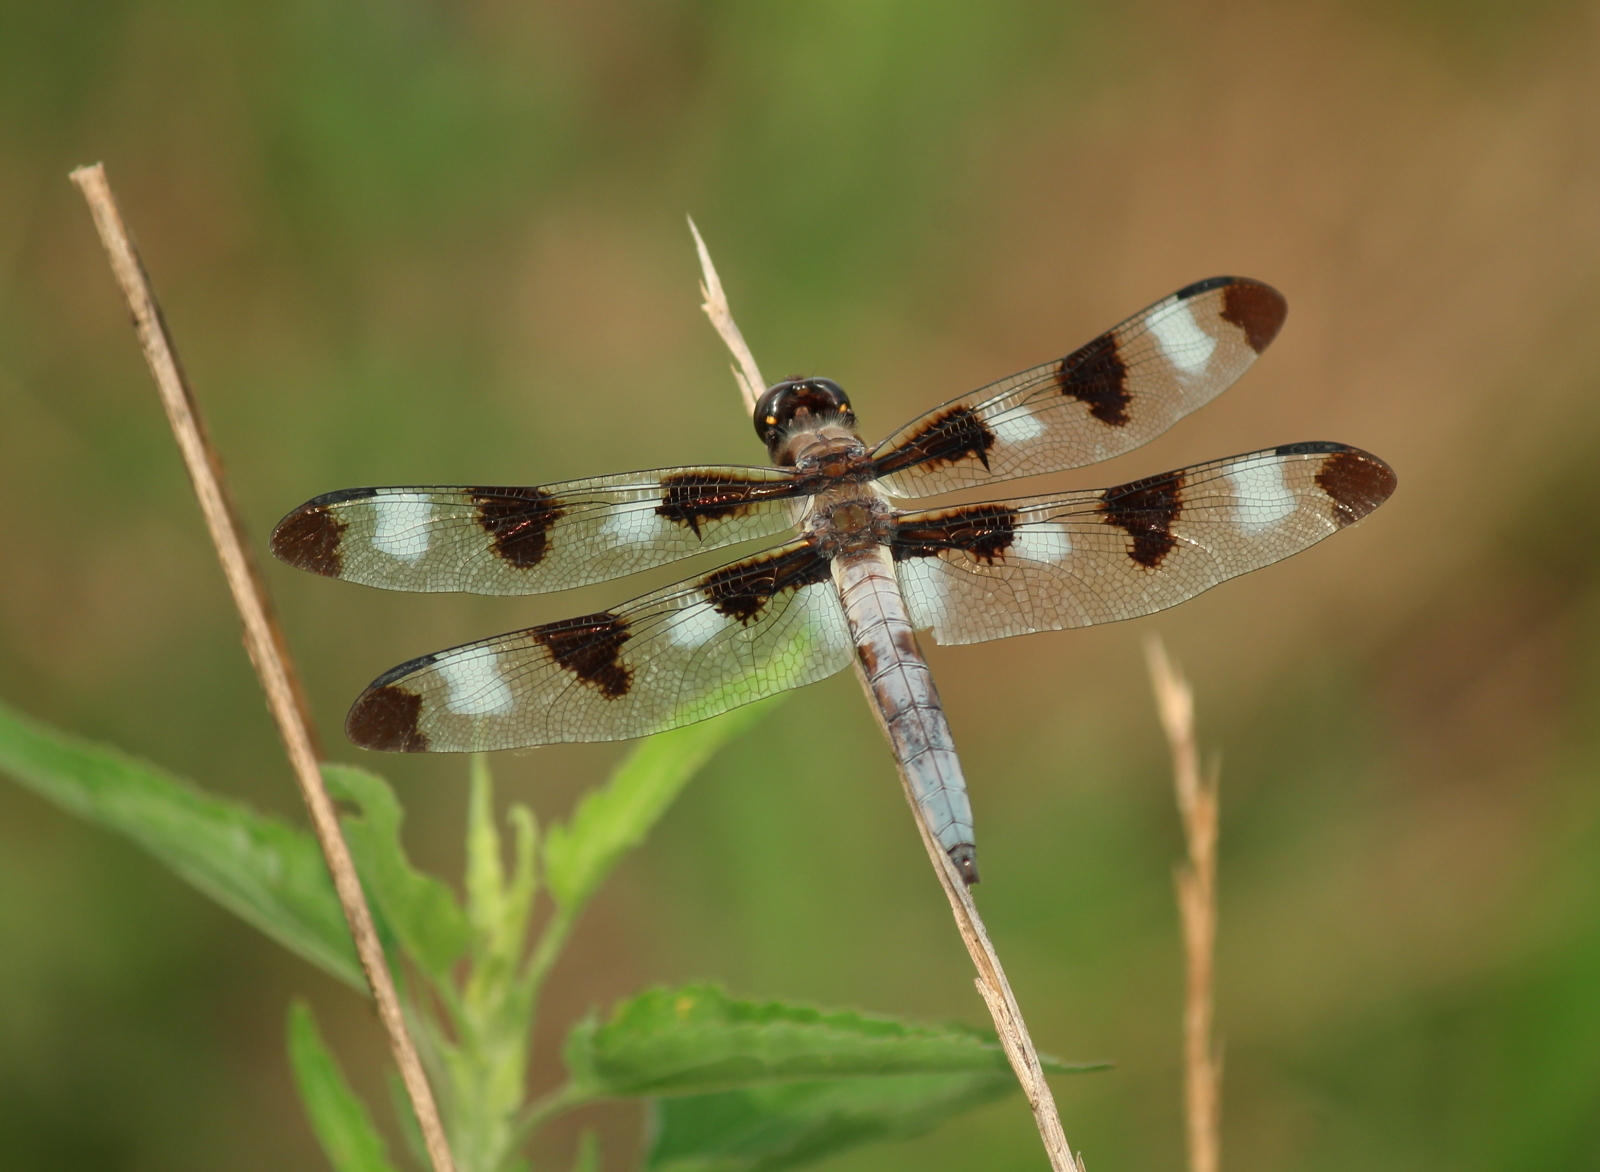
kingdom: Animalia
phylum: Arthropoda
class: Insecta
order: Odonata
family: Libellulidae
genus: Libellula
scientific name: Libellula pulchella
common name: Twelve-spotted skimmer
